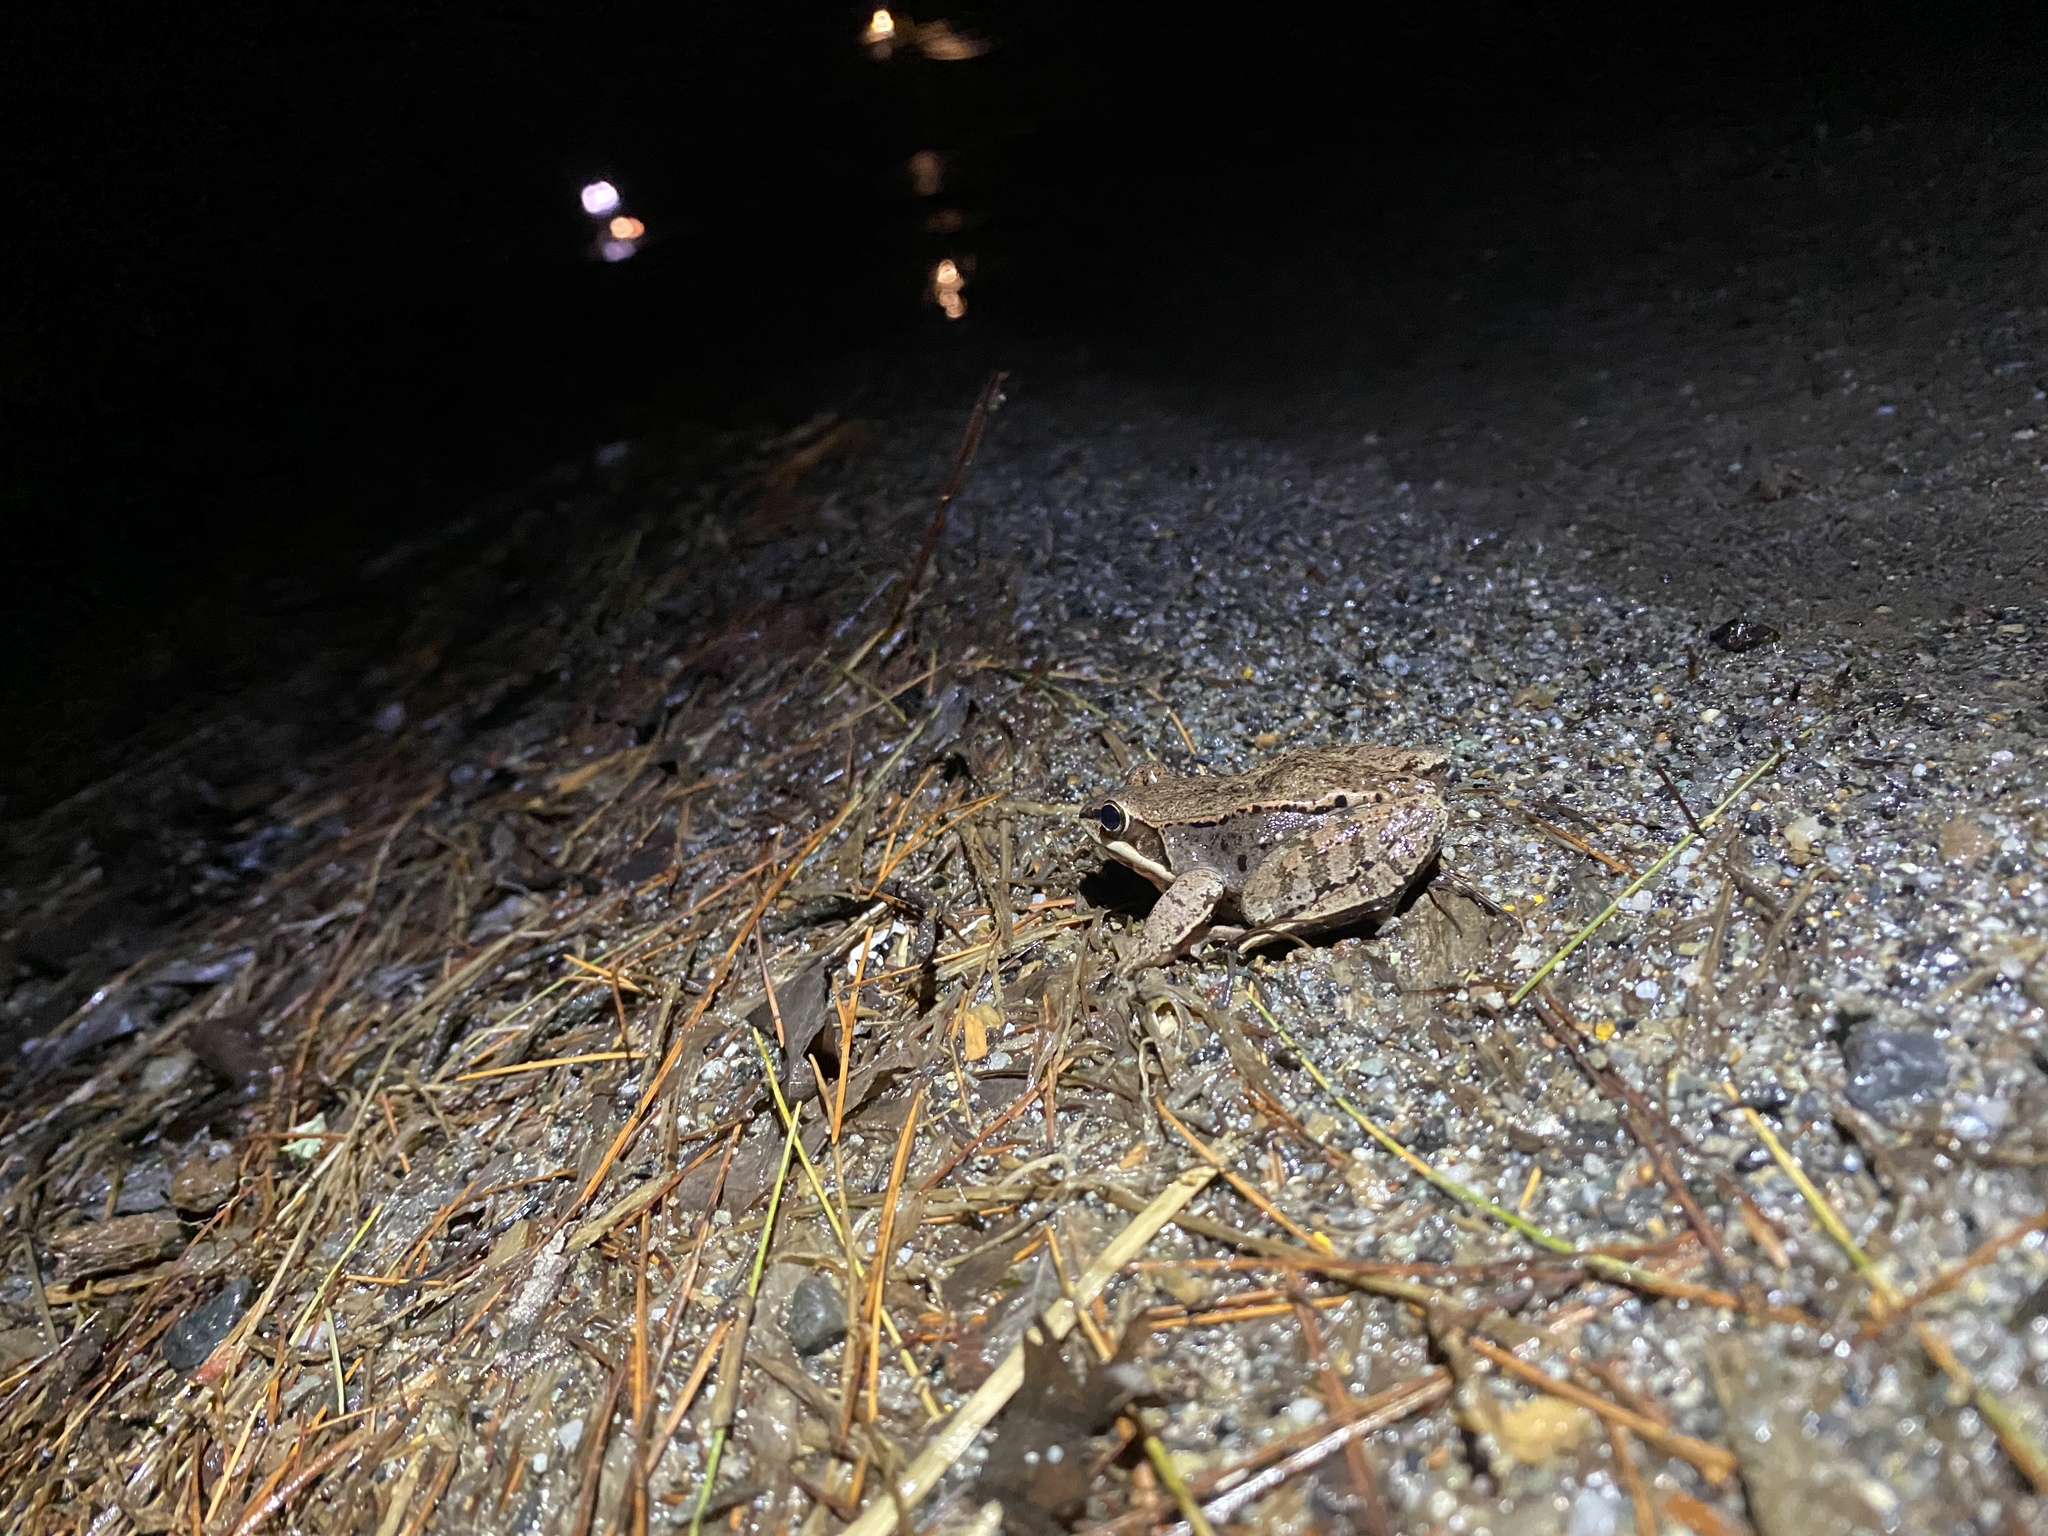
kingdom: Animalia
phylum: Chordata
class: Amphibia
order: Anura
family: Ranidae
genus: Lithobates
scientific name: Lithobates sylvaticus
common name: Wood frog
